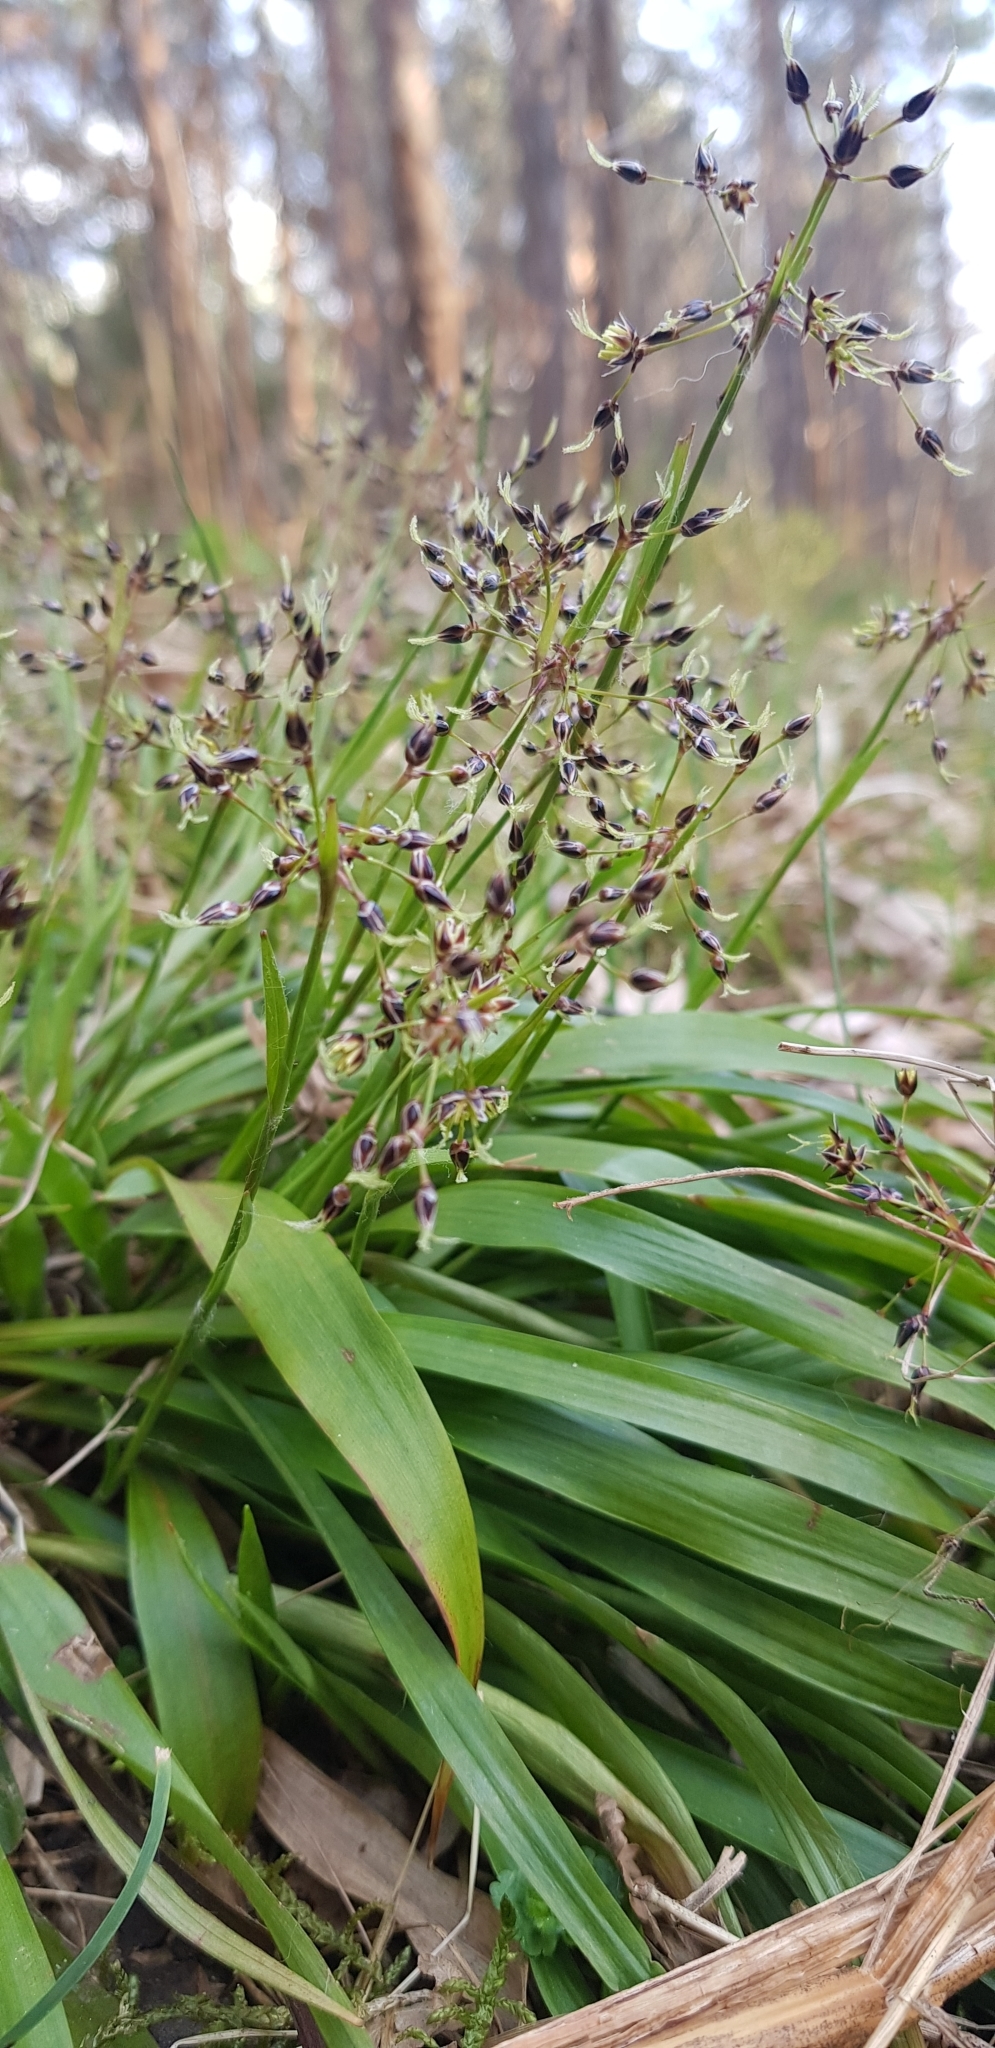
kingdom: Plantae
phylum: Tracheophyta
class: Liliopsida
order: Poales
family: Juncaceae
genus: Luzula
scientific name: Luzula pilosa
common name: Hairy wood-rush
